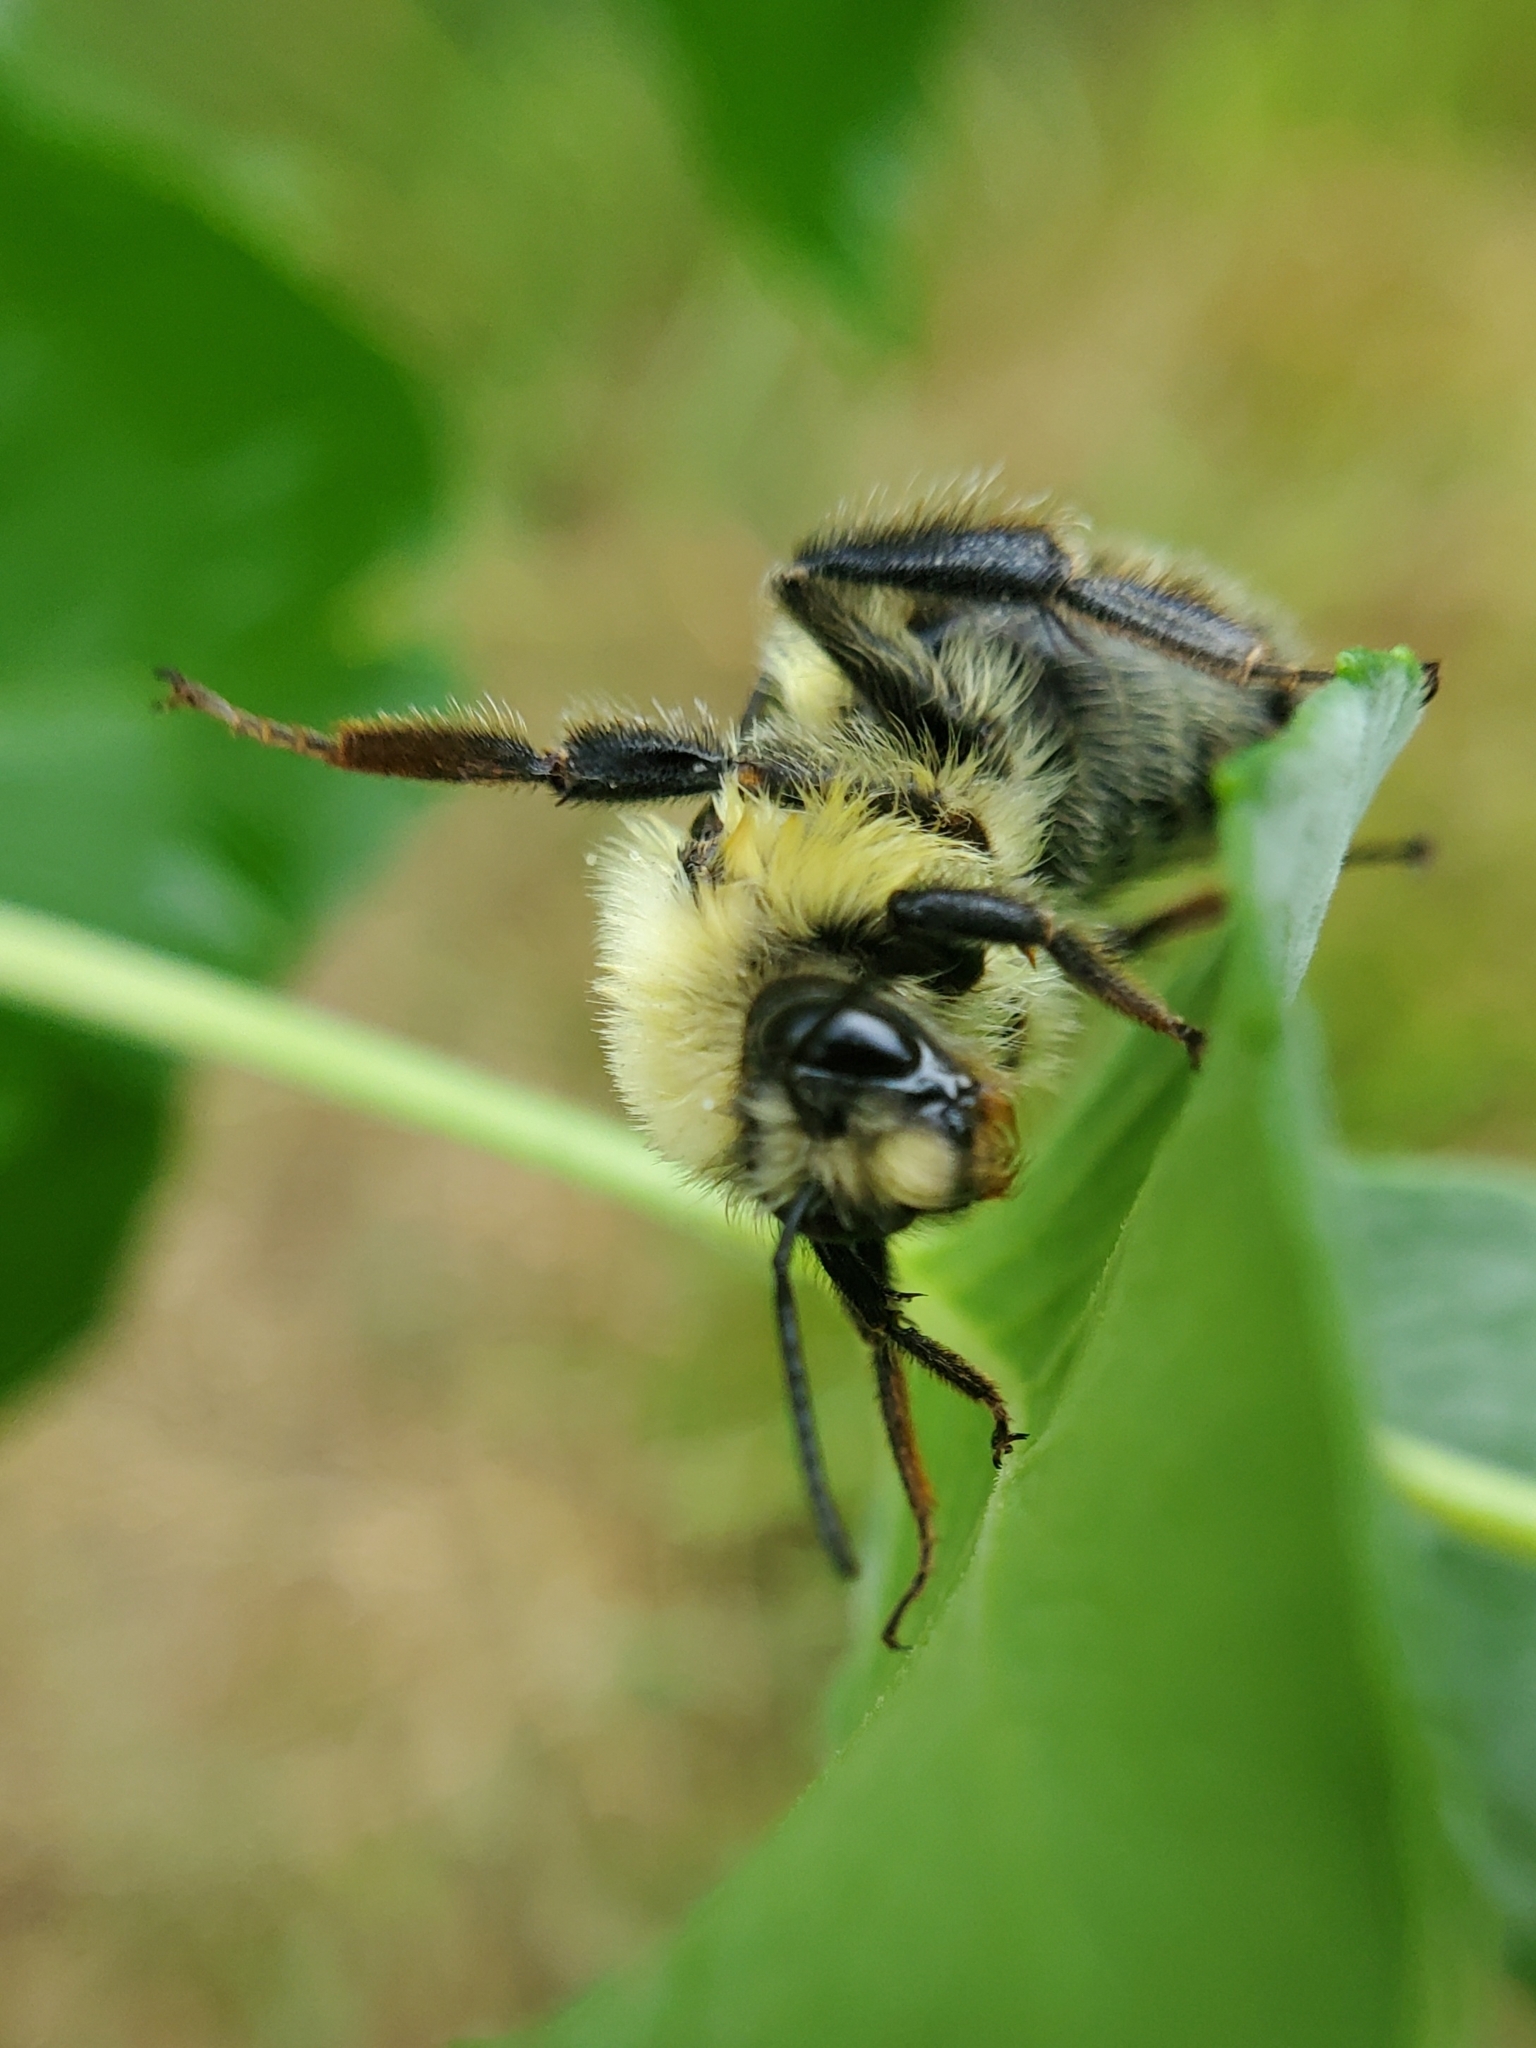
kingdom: Animalia
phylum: Arthropoda
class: Insecta
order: Hymenoptera
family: Apidae
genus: Bombus
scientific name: Bombus bimaculatus
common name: Two-spotted bumble bee
